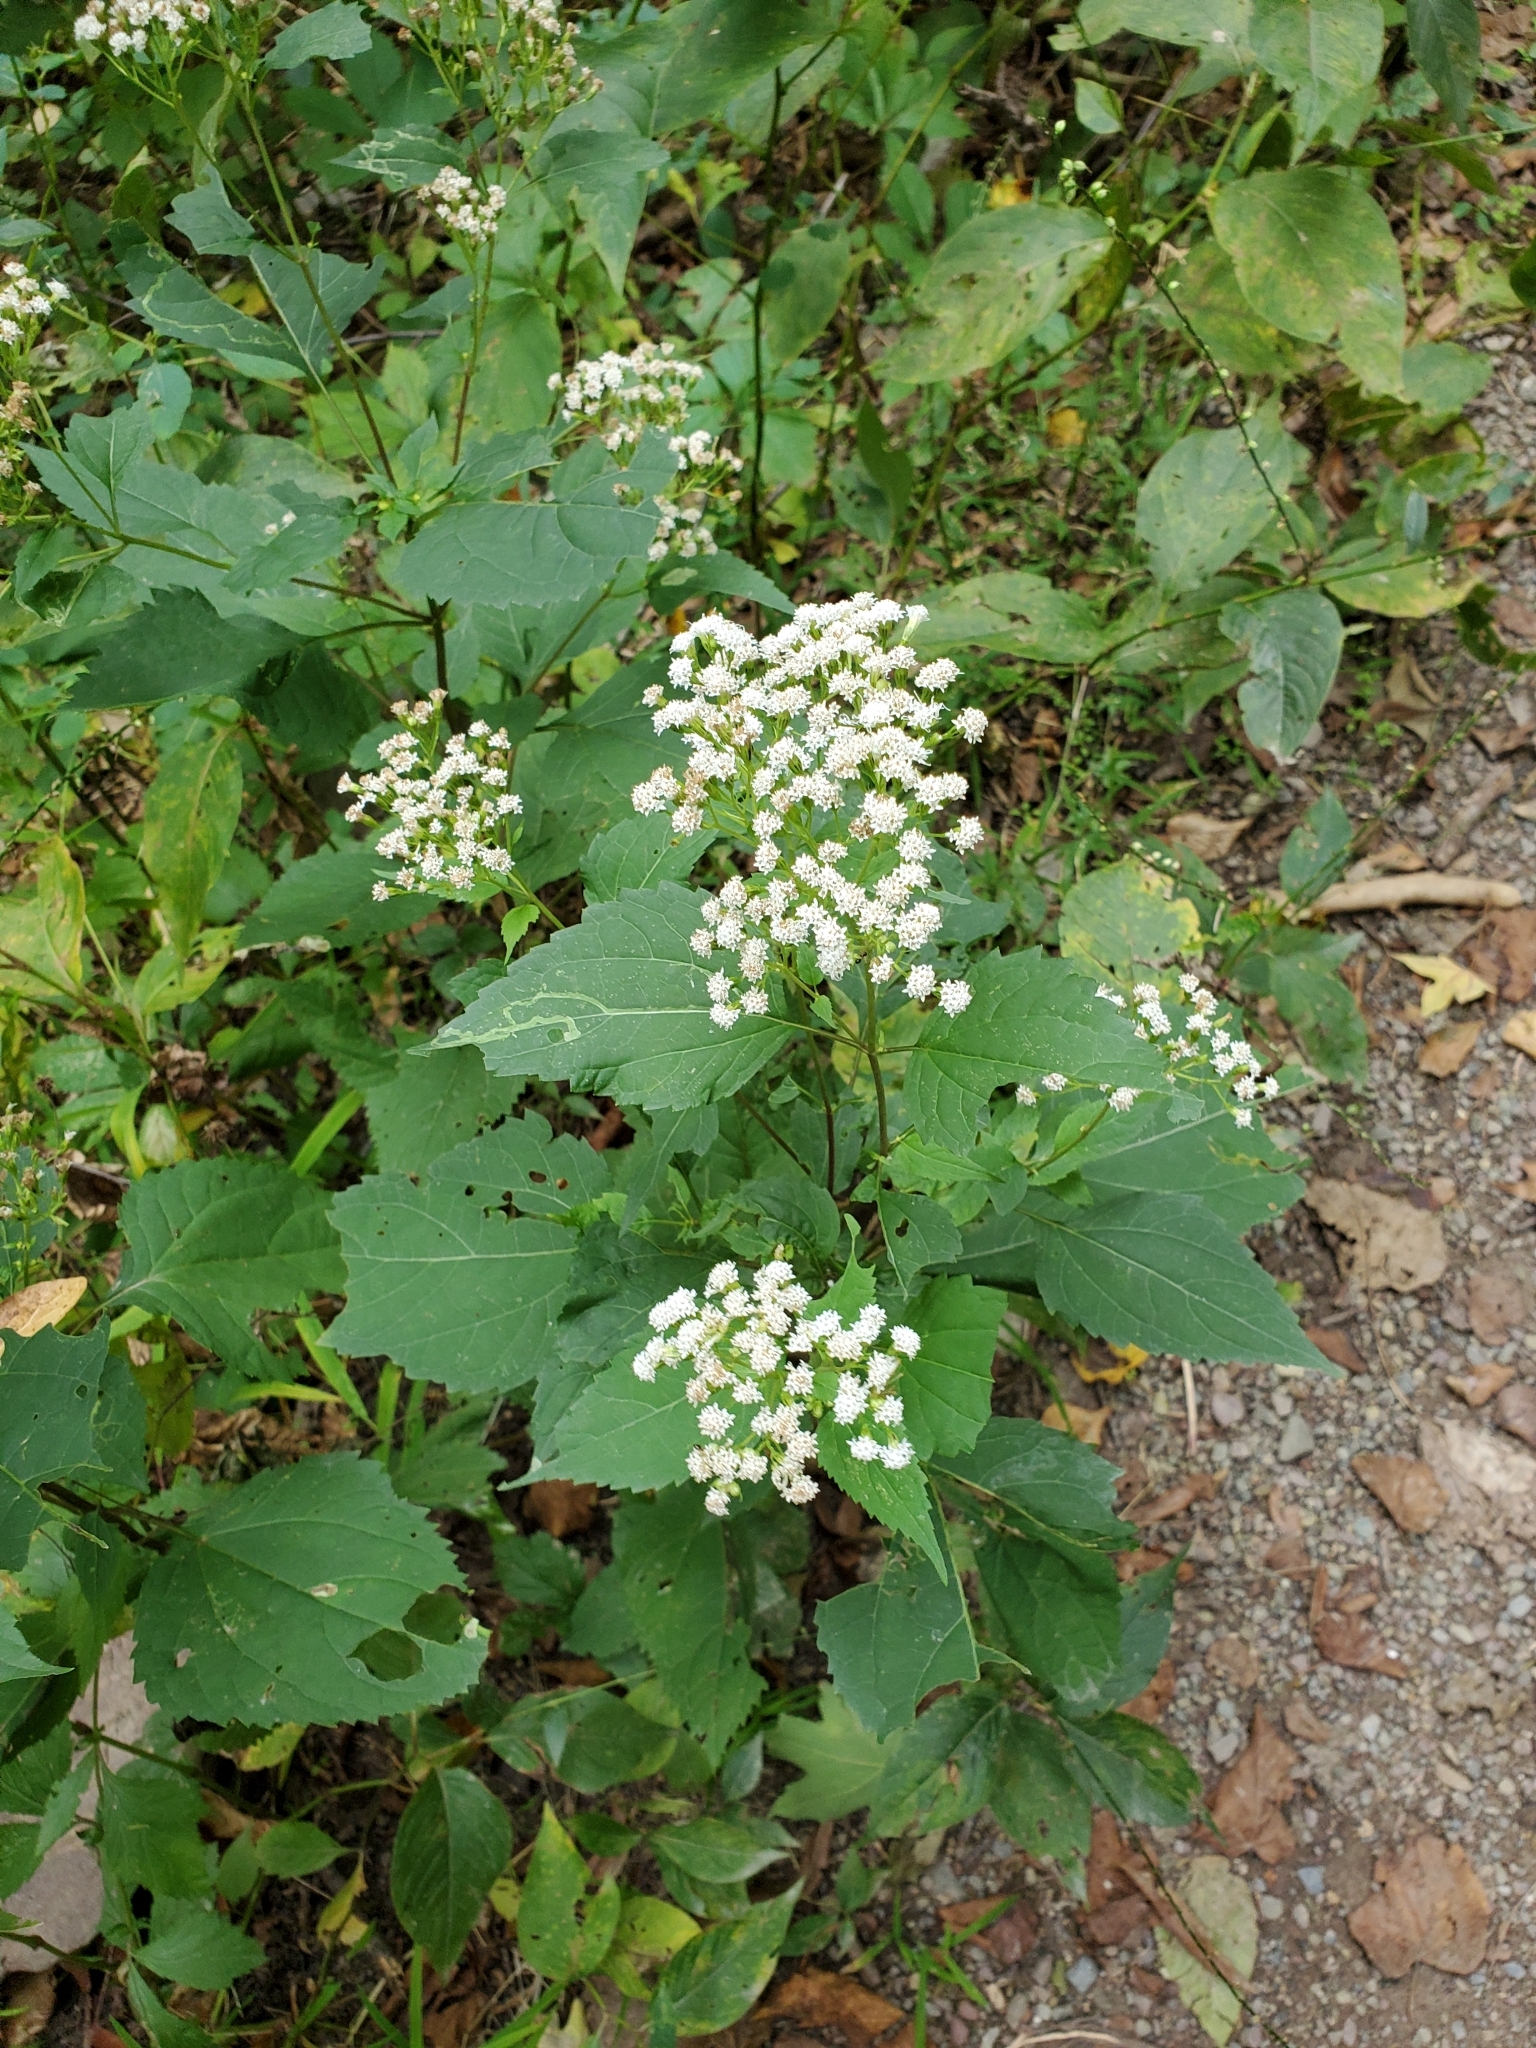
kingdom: Plantae
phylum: Tracheophyta
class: Magnoliopsida
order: Asterales
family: Asteraceae
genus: Ageratina
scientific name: Ageratina altissima
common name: White snakeroot
